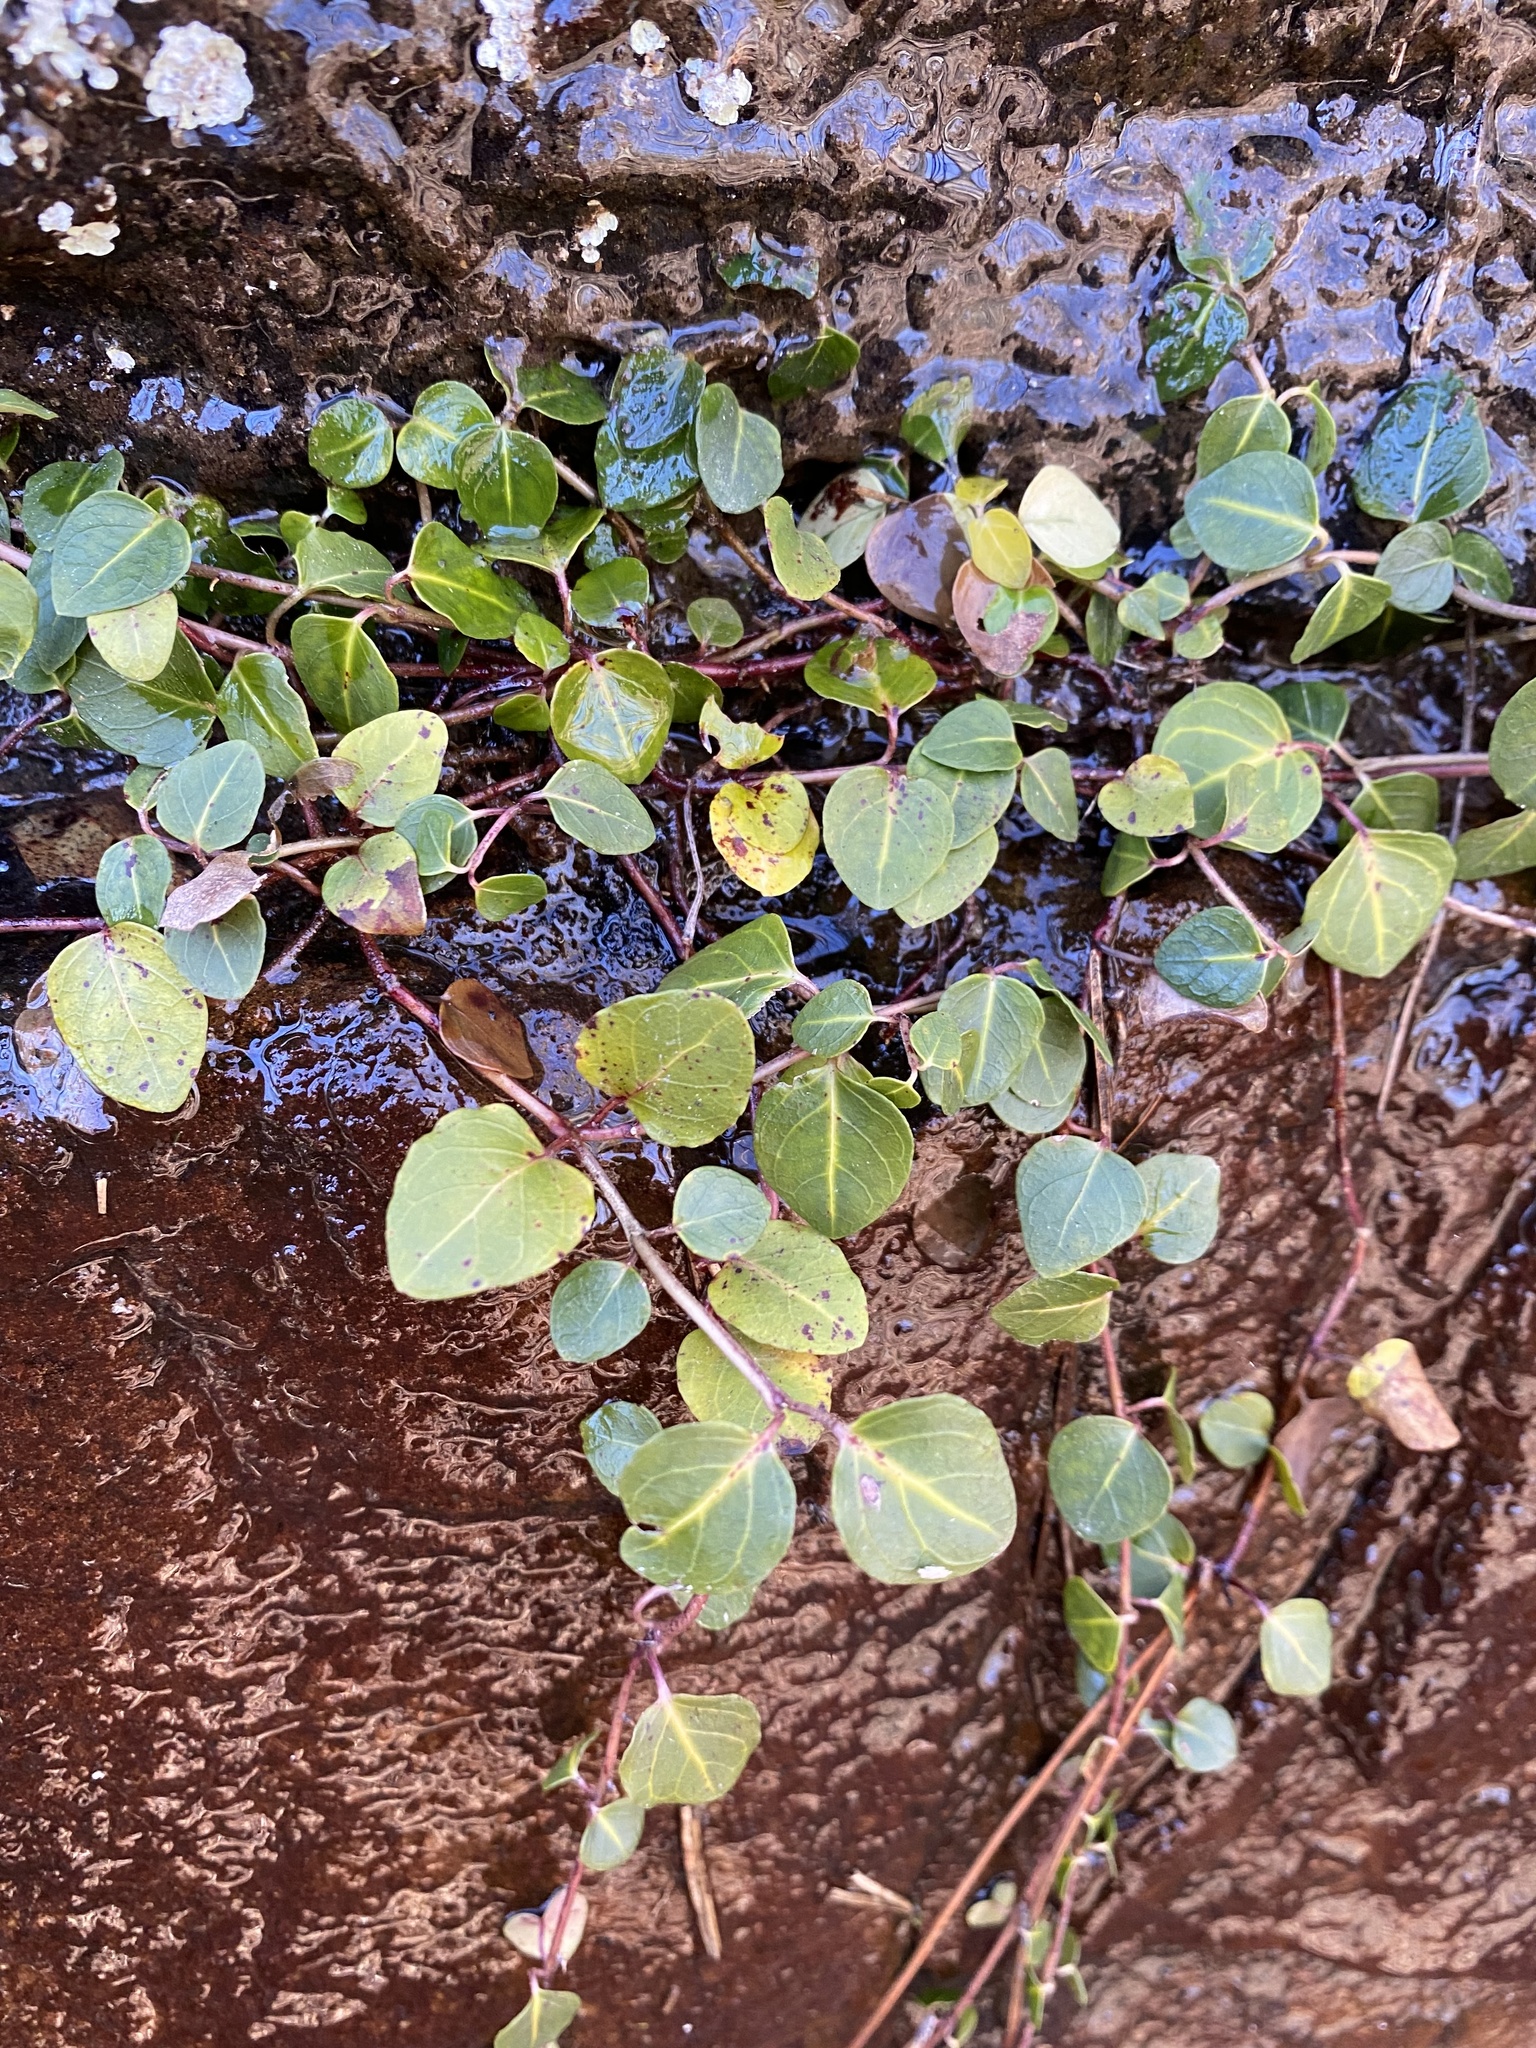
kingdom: Plantae
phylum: Tracheophyta
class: Magnoliopsida
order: Gentianales
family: Rubiaceae
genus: Mitchella
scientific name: Mitchella repens
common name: Partridge-berry
